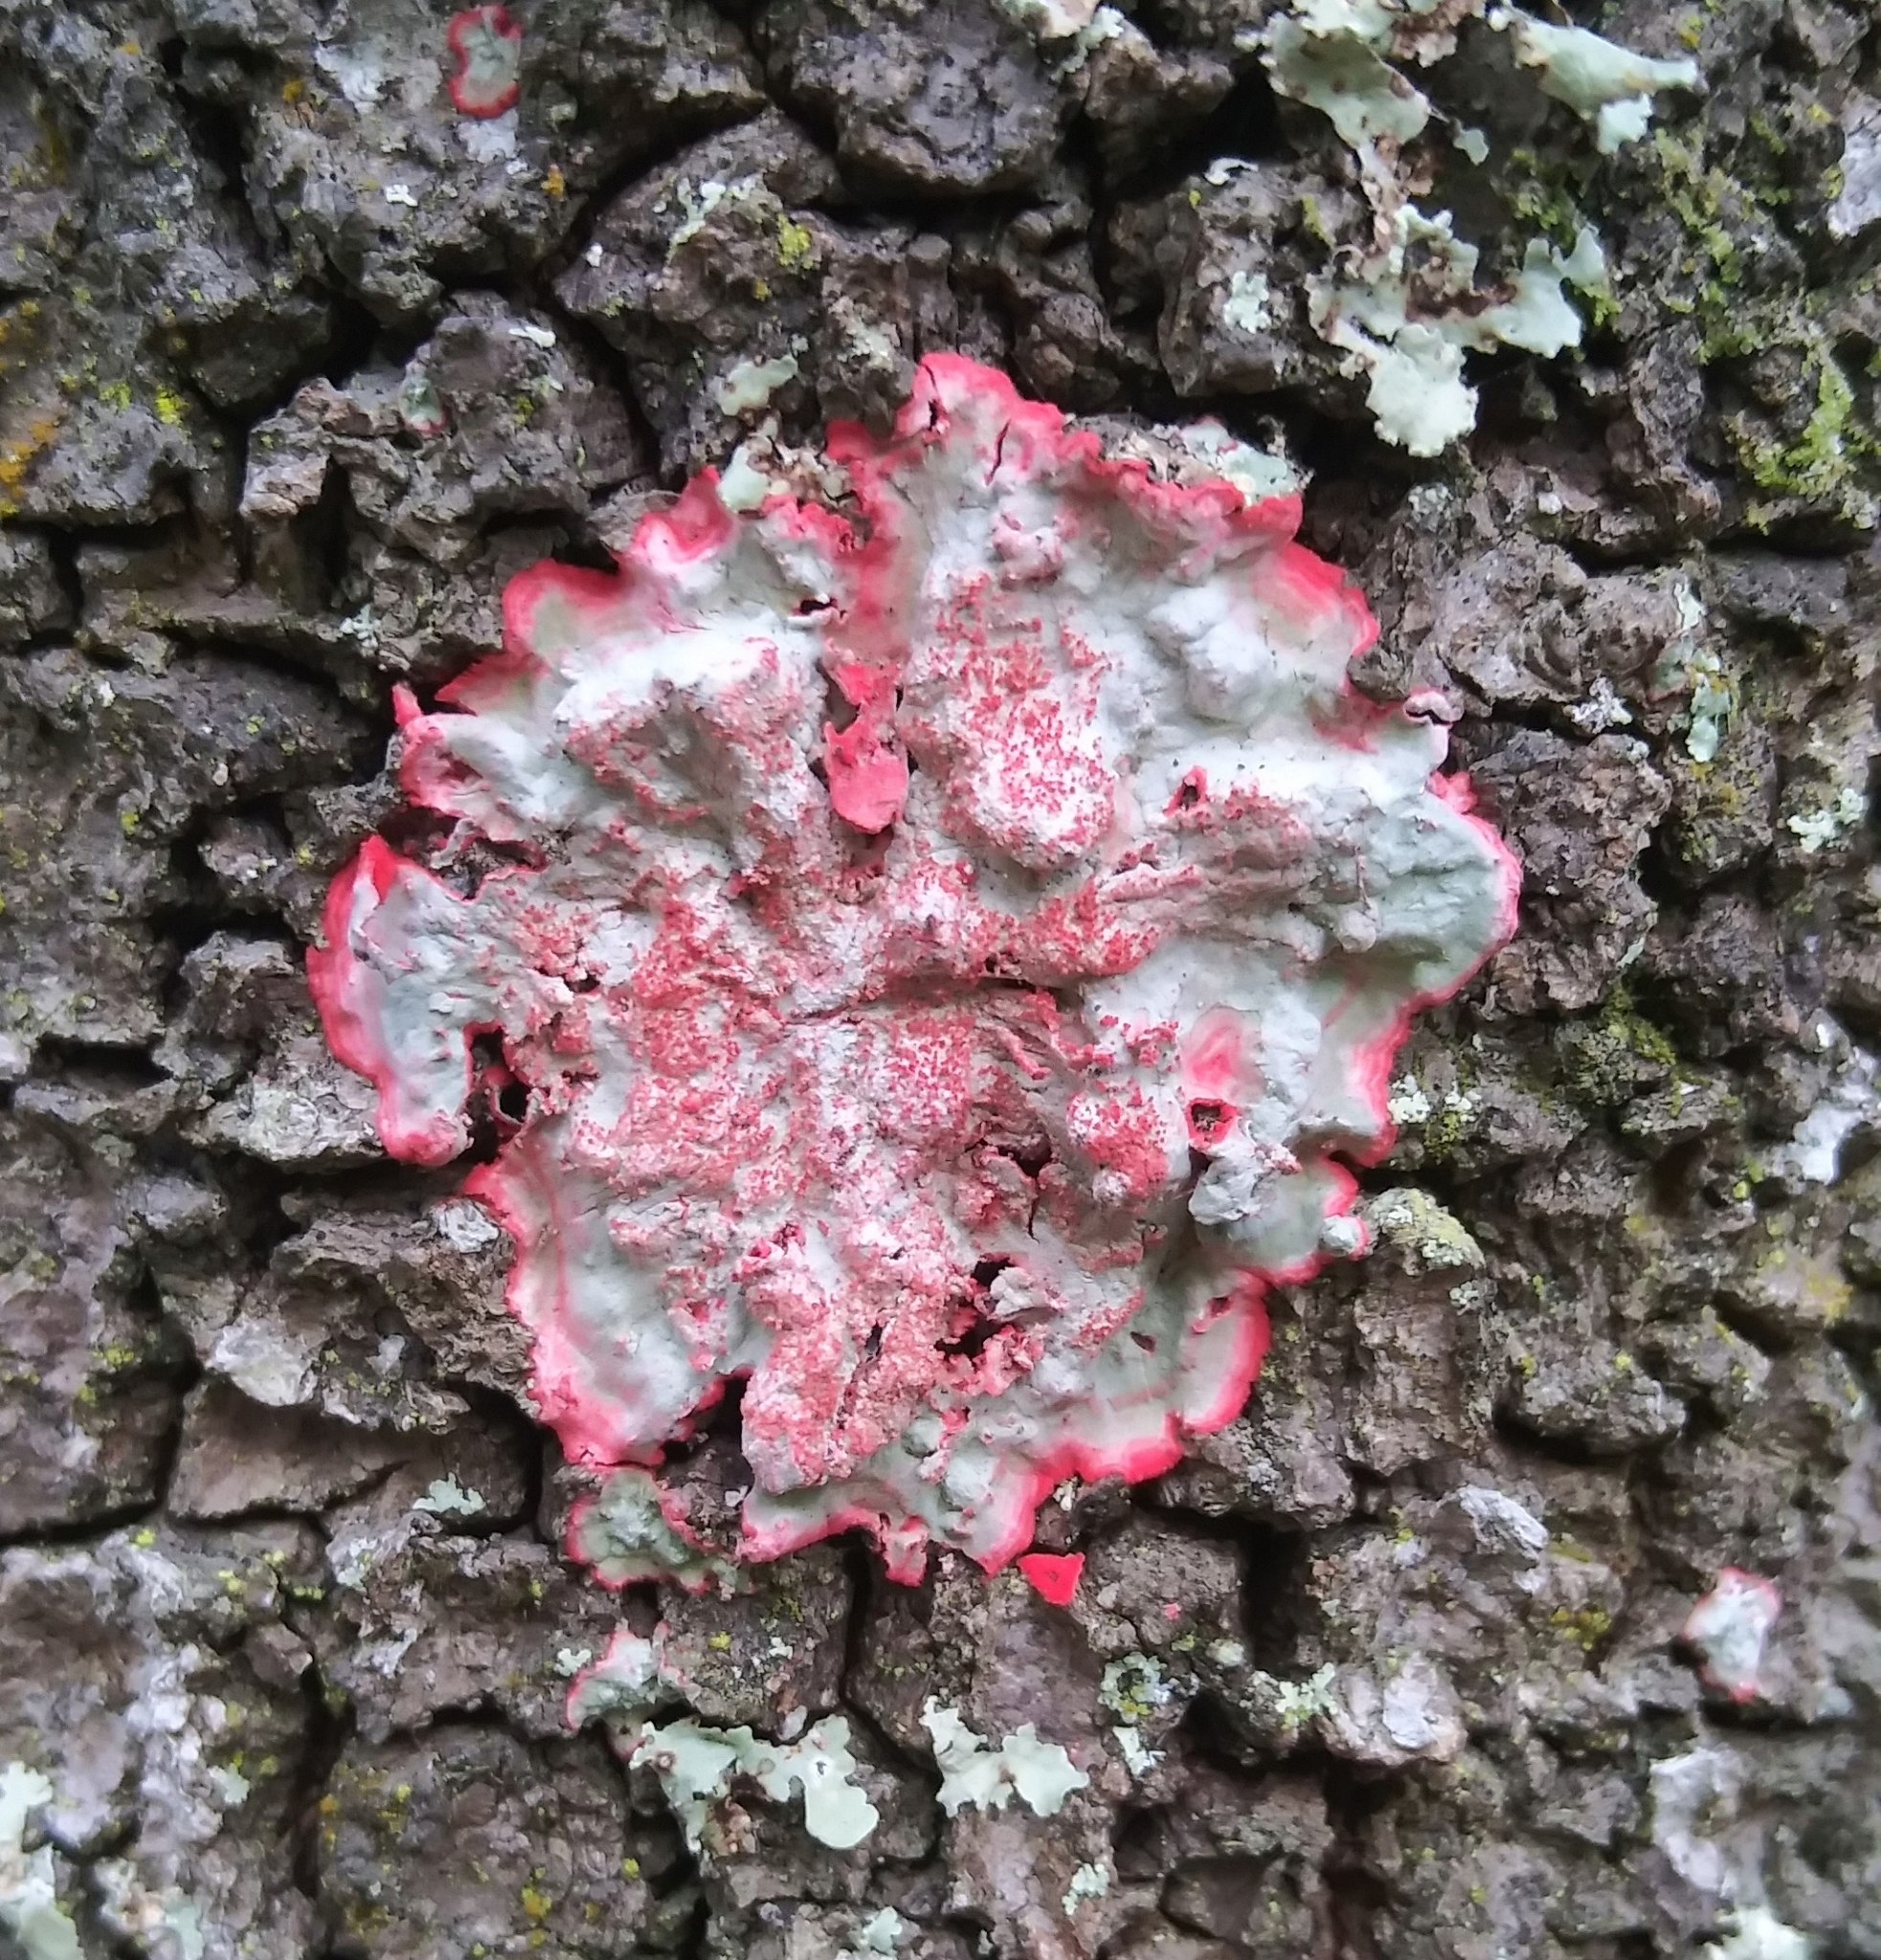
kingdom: Fungi
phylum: Ascomycota
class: Arthoniomycetes
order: Arthoniales
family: Arthoniaceae
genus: Herpothallon
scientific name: Herpothallon rubrocinctum
